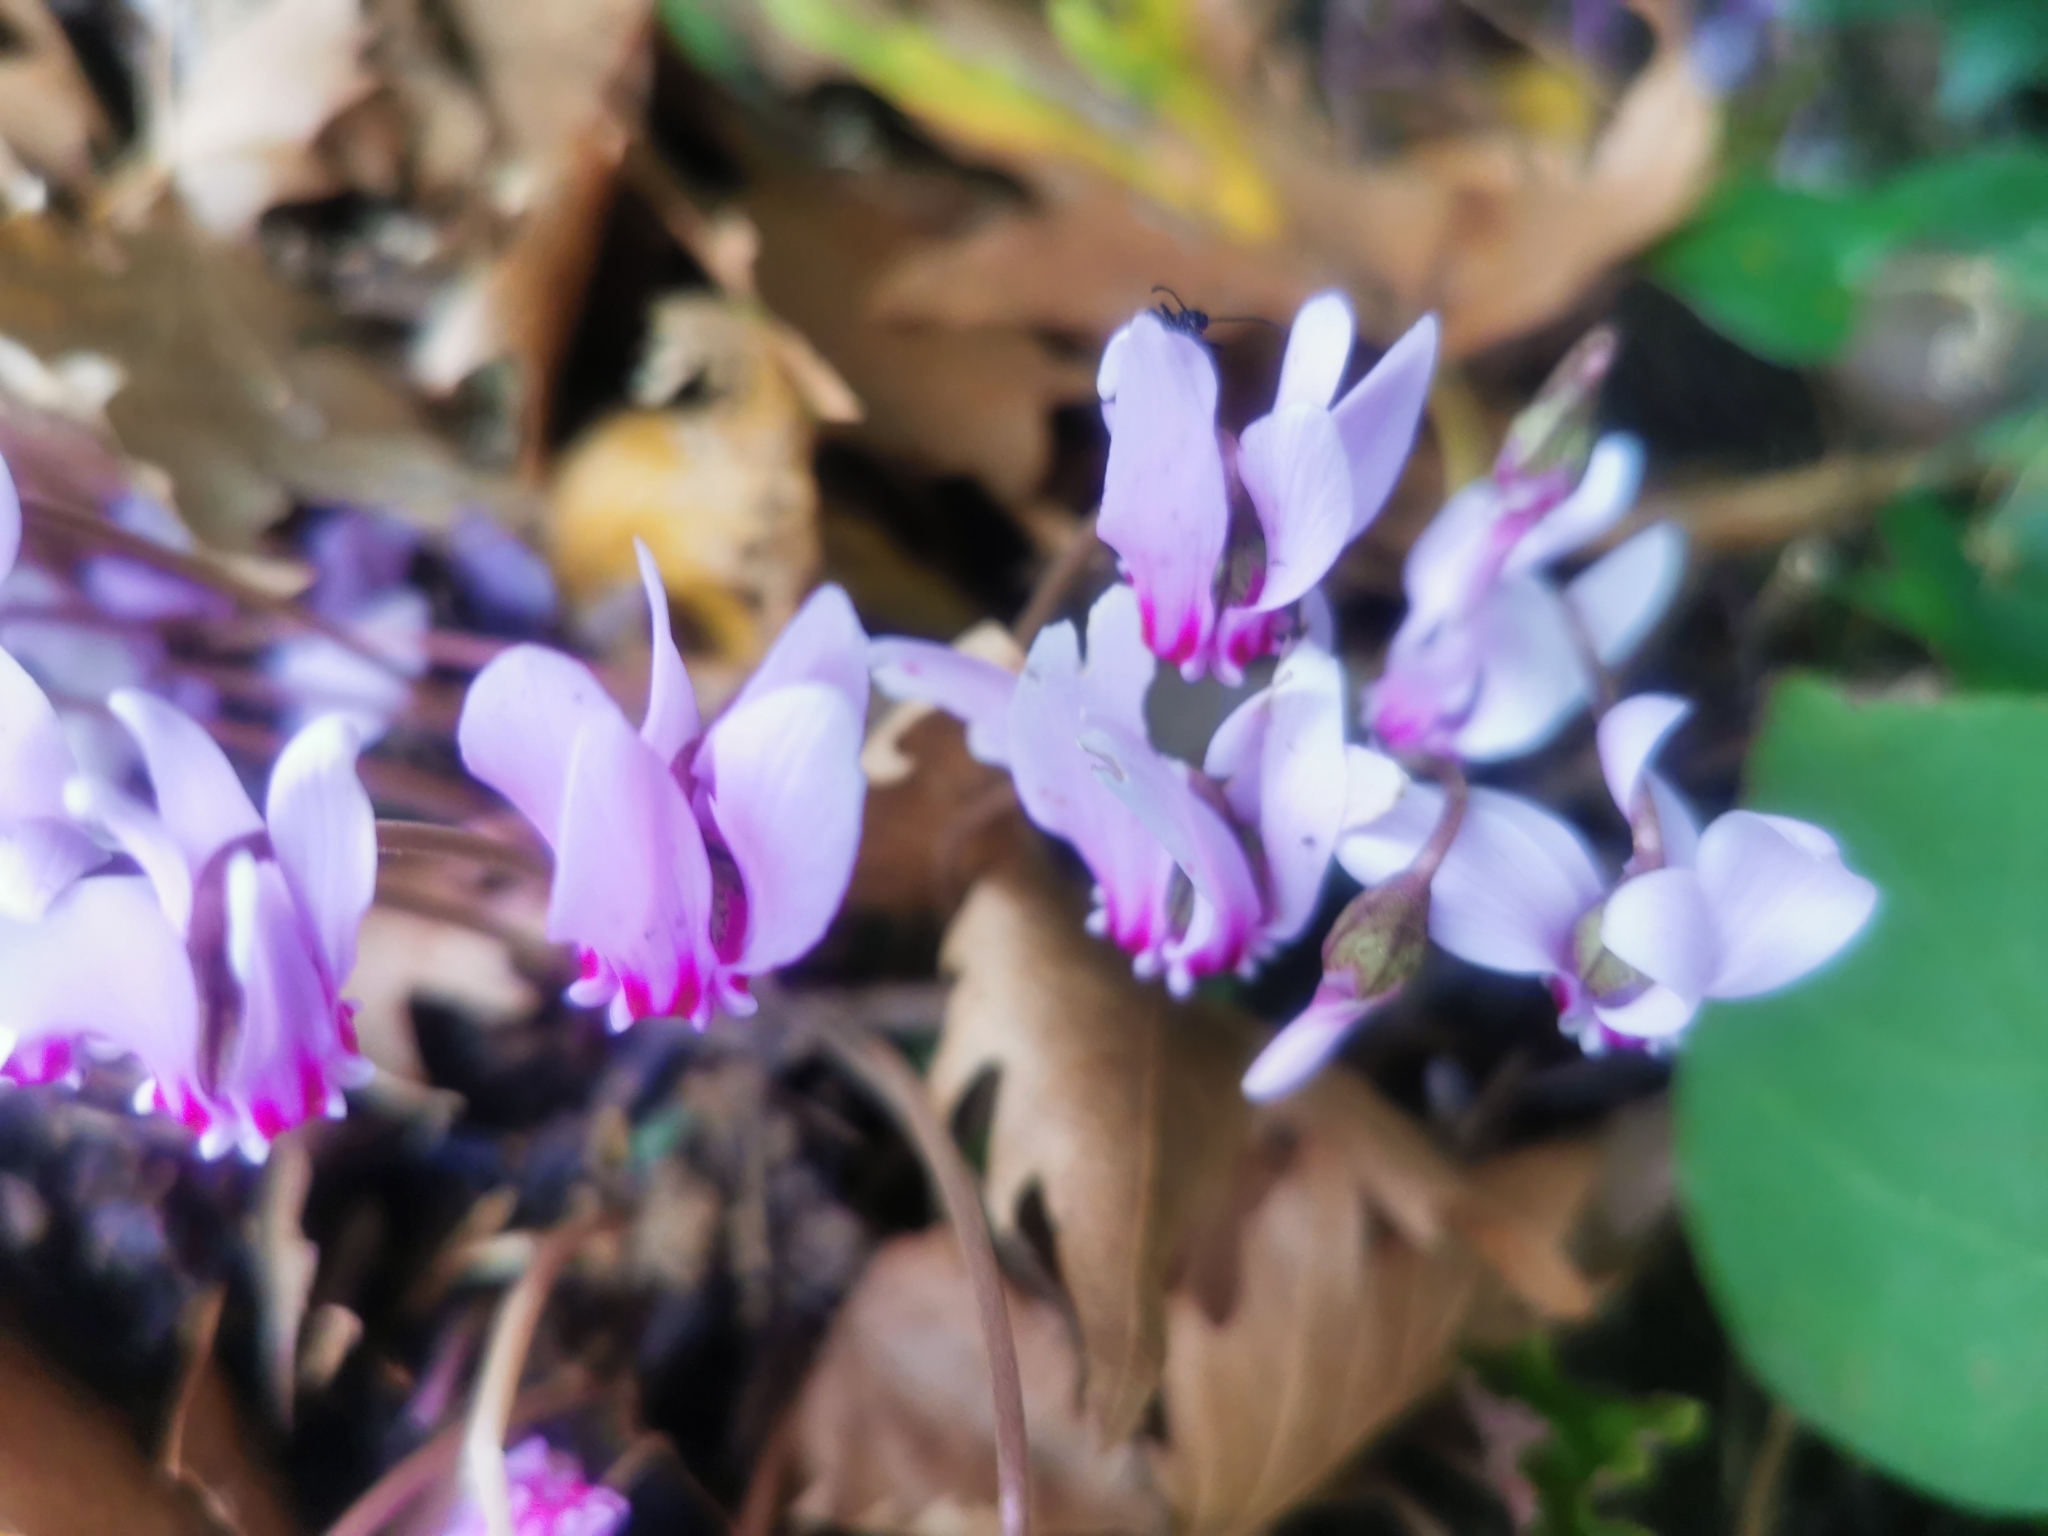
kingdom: Plantae
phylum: Tracheophyta
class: Magnoliopsida
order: Ericales
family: Primulaceae
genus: Cyclamen
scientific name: Cyclamen hederifolium
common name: Sowbread
